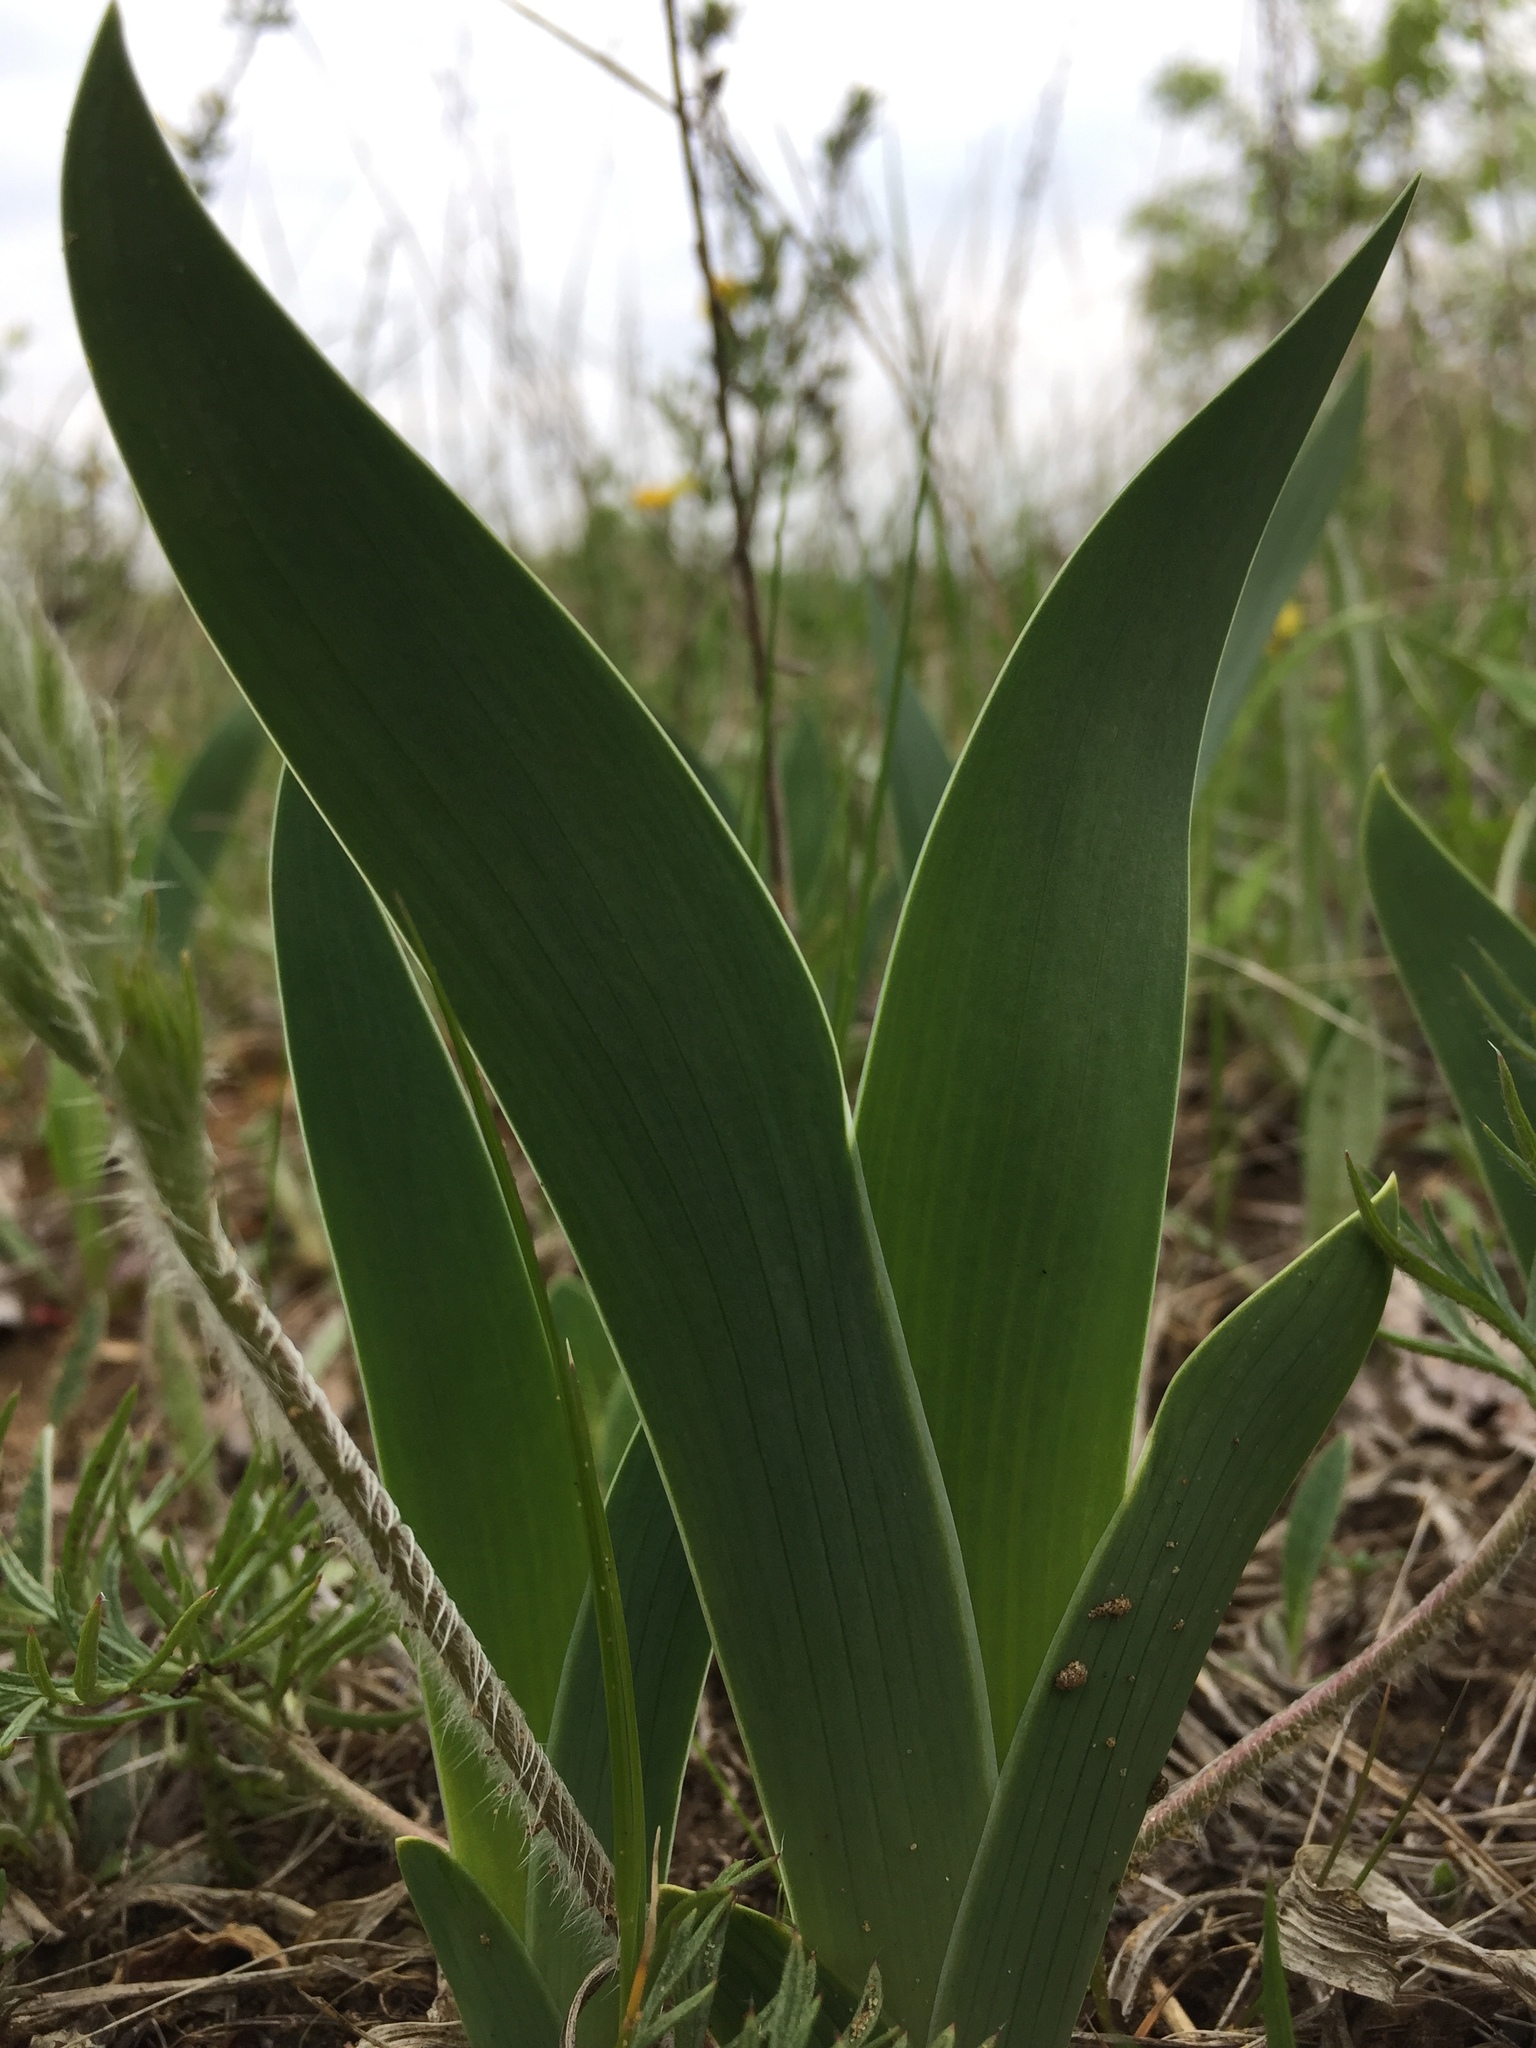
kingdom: Plantae
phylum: Tracheophyta
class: Liliopsida
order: Asparagales
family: Iridaceae
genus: Iris
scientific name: Iris aphylla
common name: Stool iris
